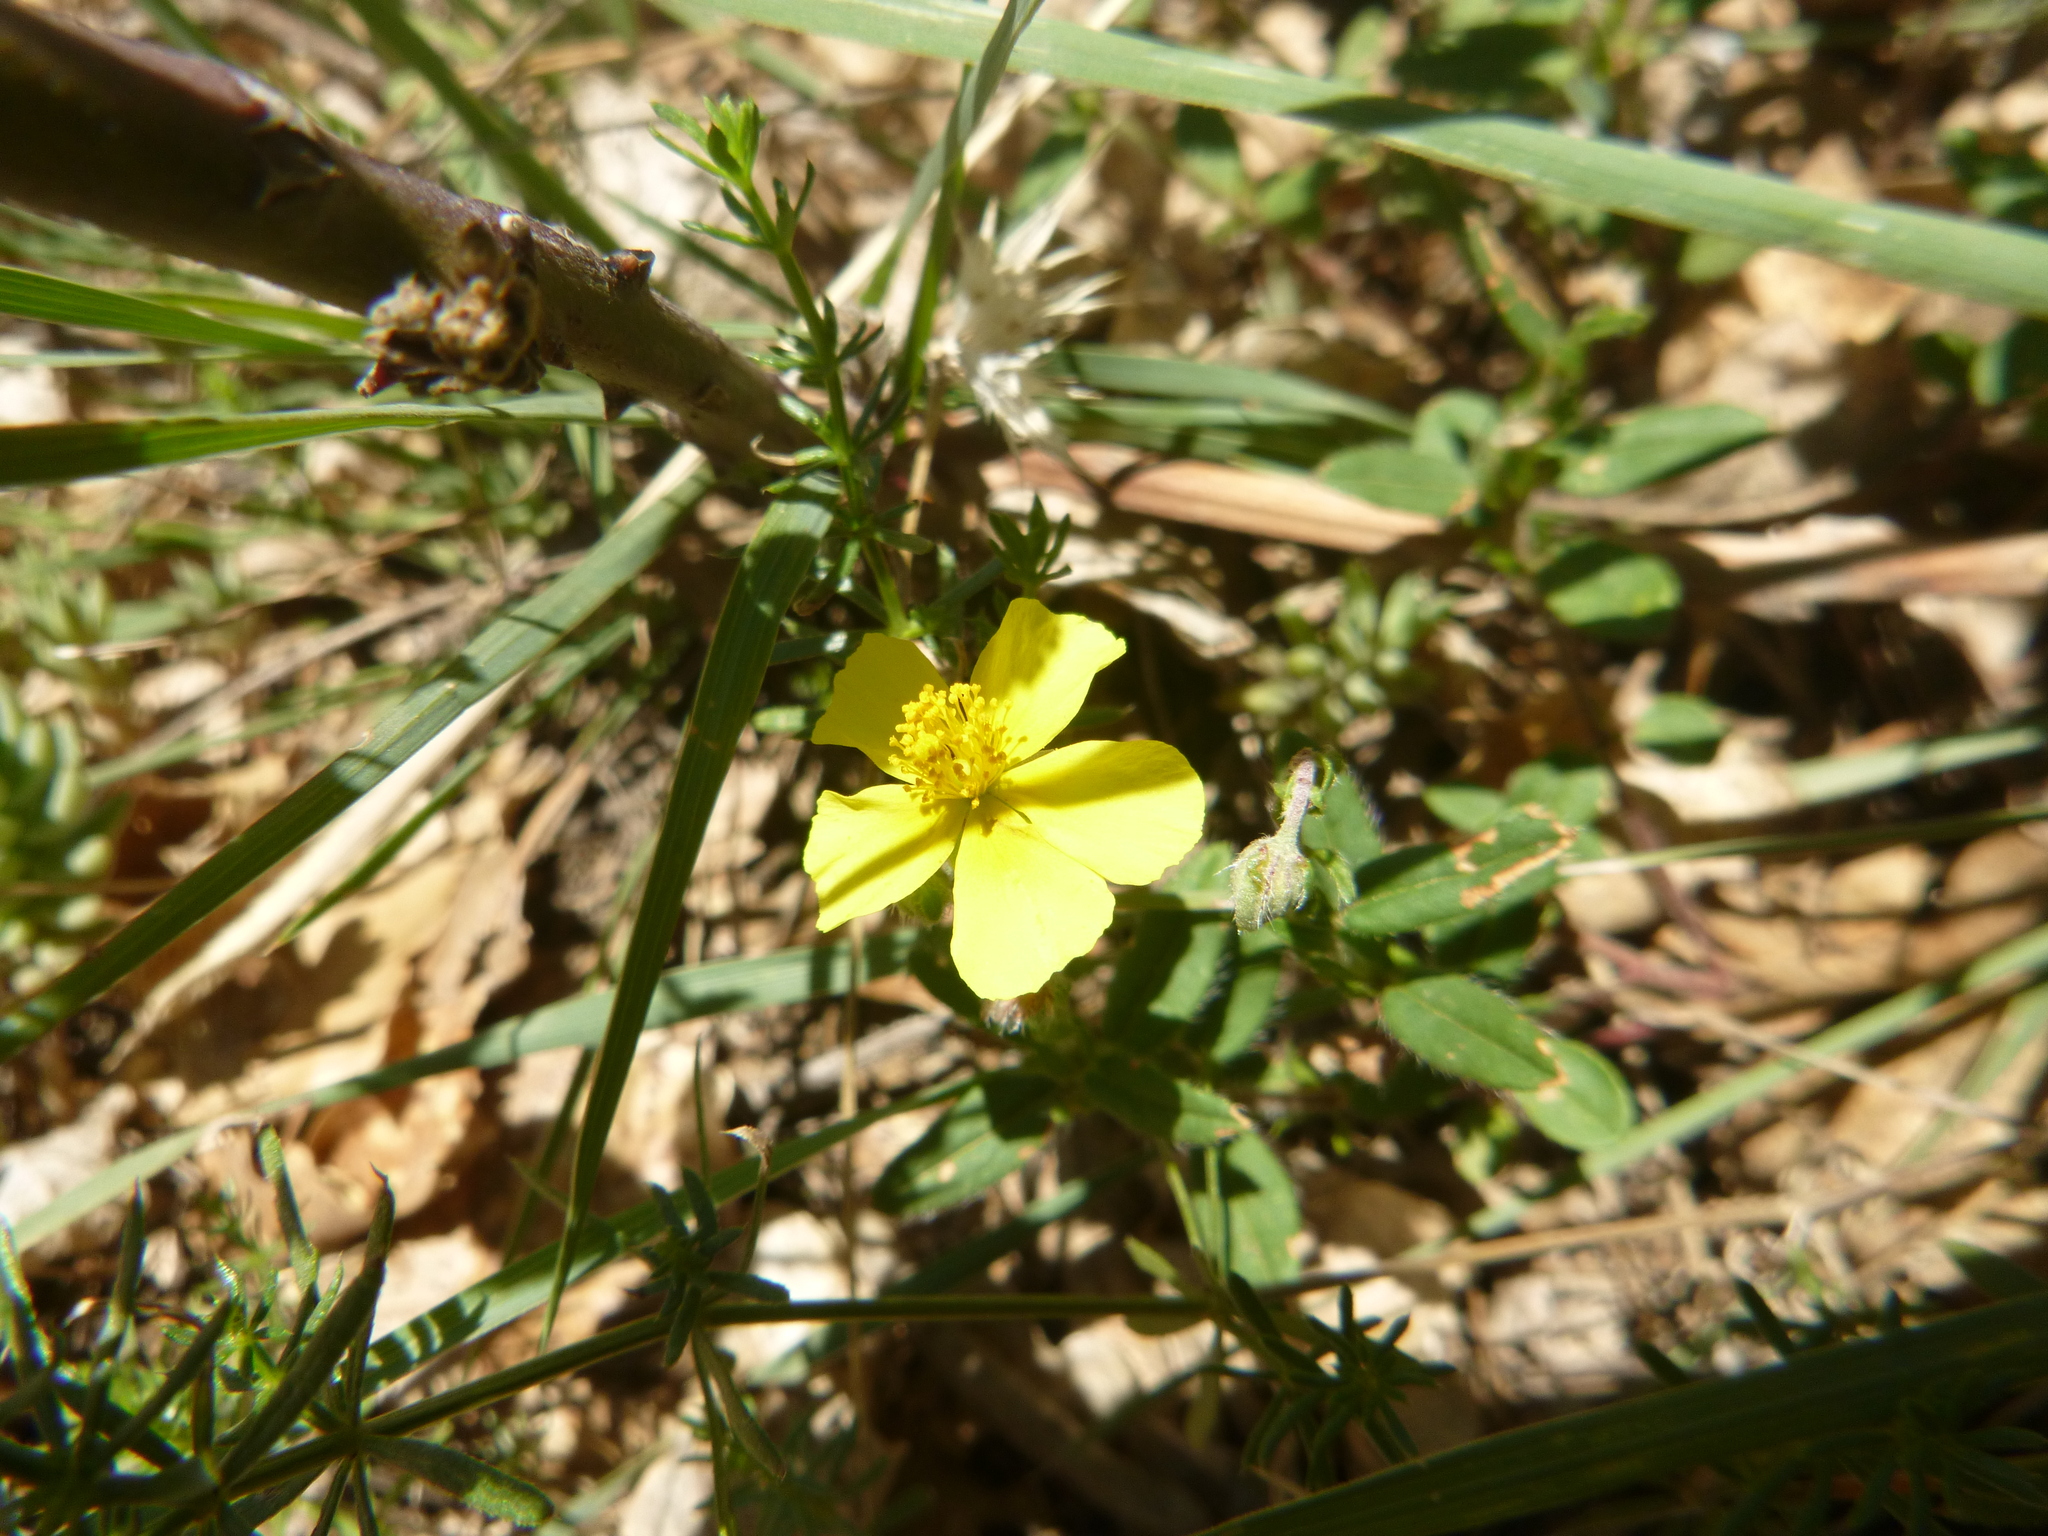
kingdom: Plantae
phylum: Tracheophyta
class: Magnoliopsida
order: Malvales
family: Cistaceae
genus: Helianthemum
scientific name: Helianthemum nummularium
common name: Common rock-rose
